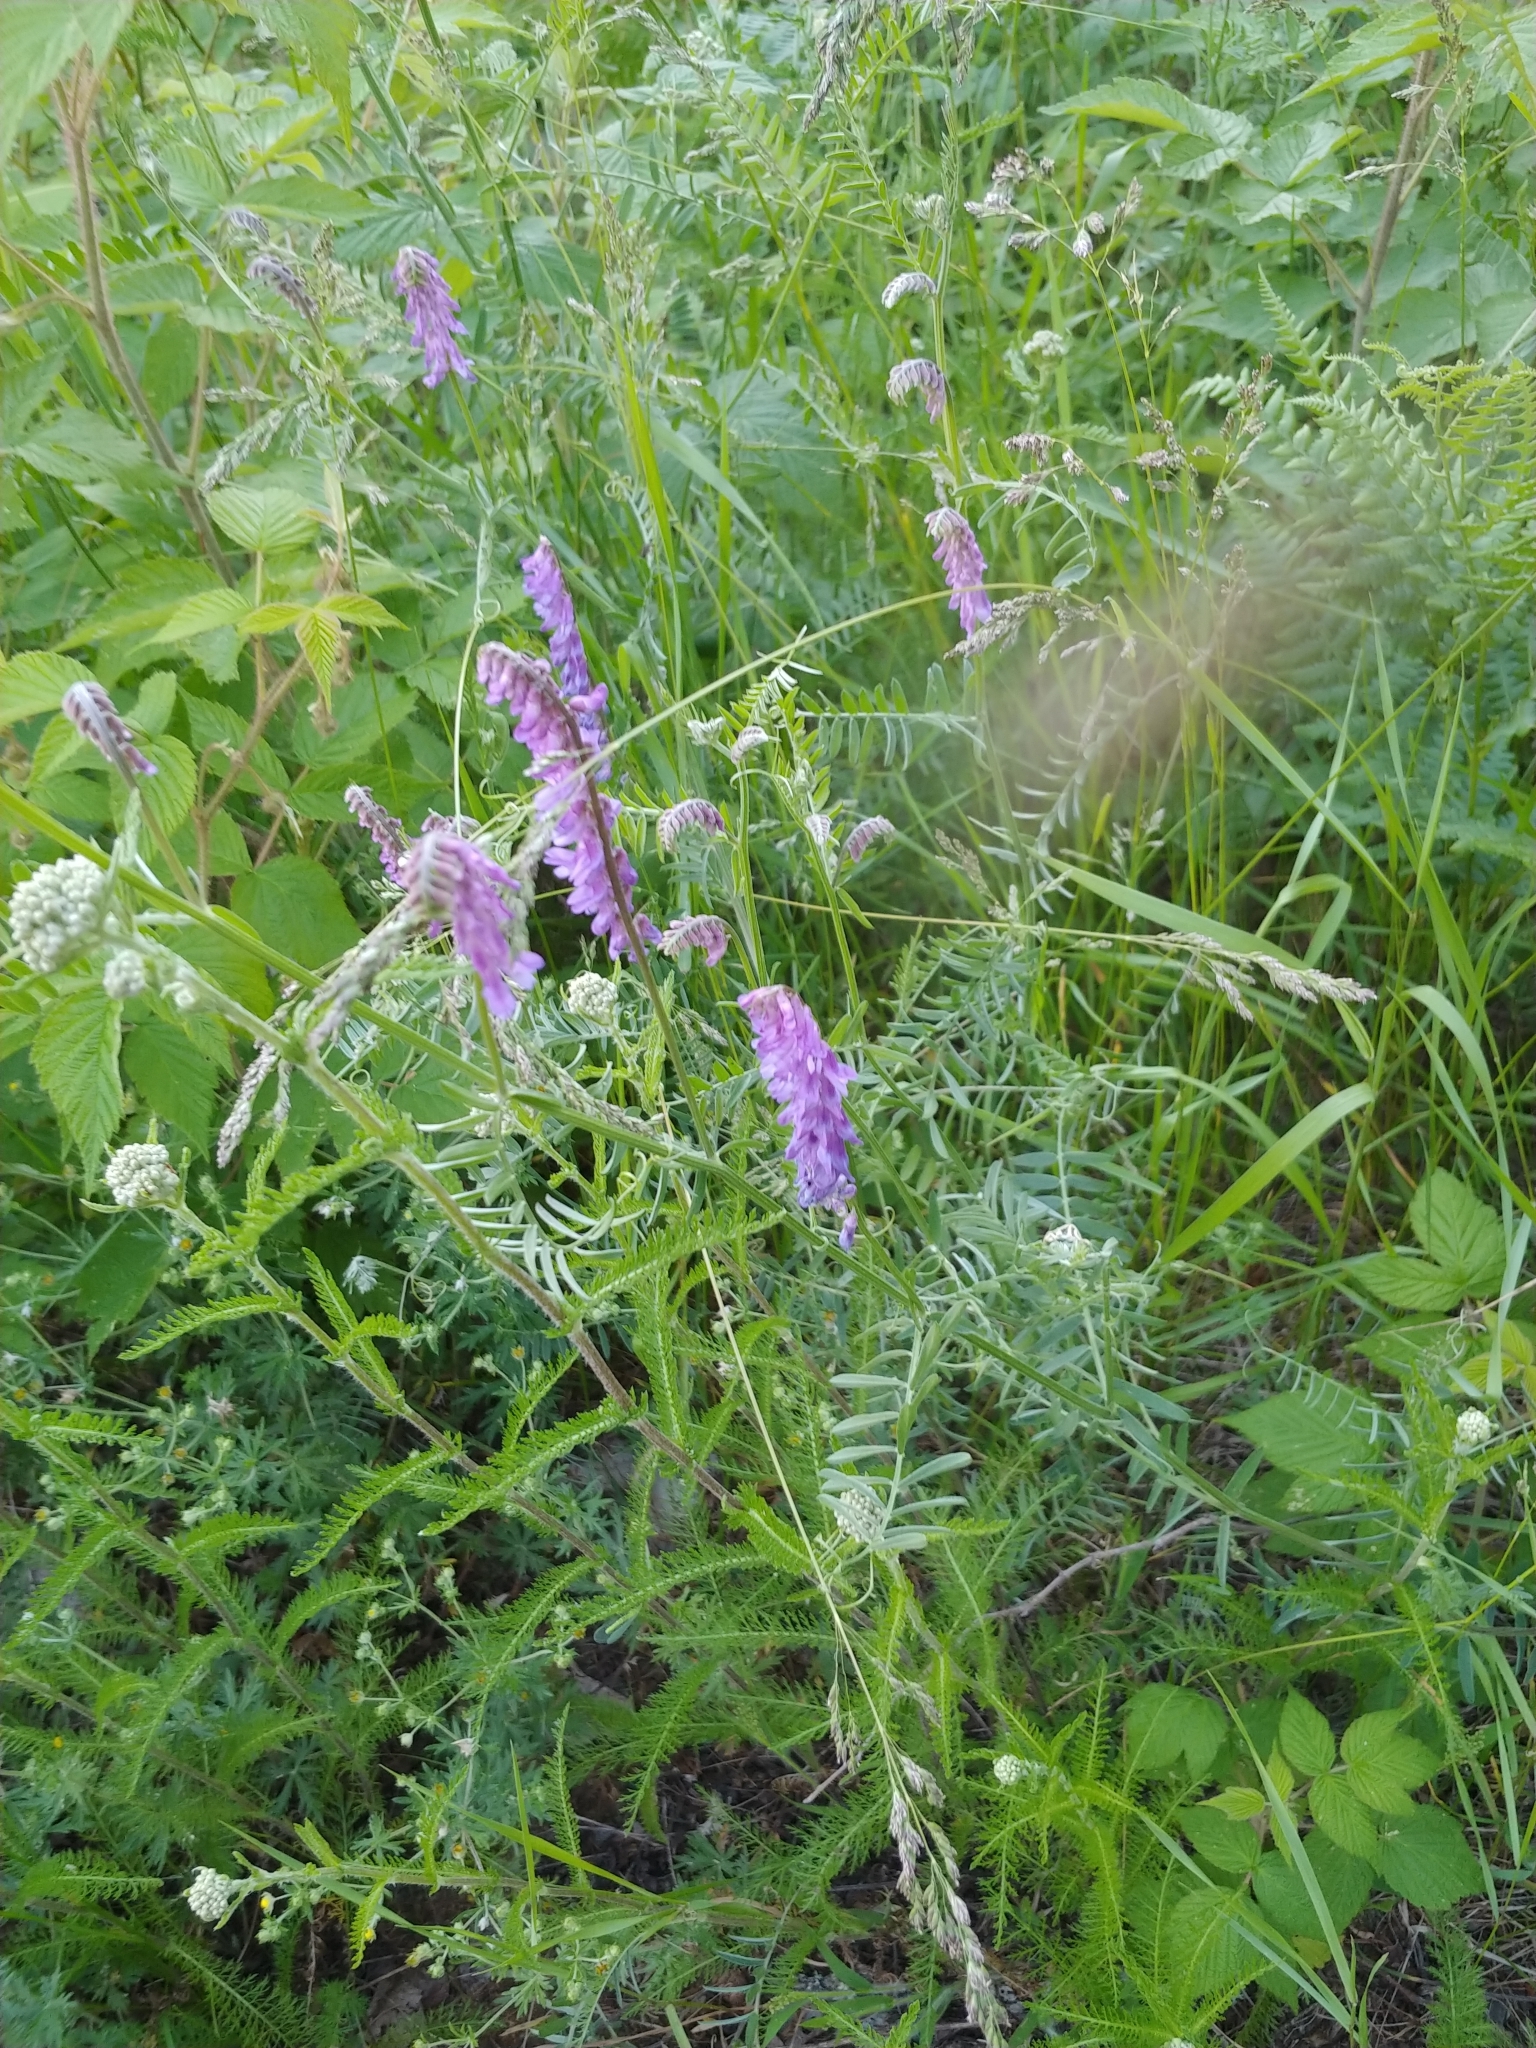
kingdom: Plantae
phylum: Tracheophyta
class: Magnoliopsida
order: Fabales
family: Fabaceae
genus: Vicia
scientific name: Vicia cracca
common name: Bird vetch
